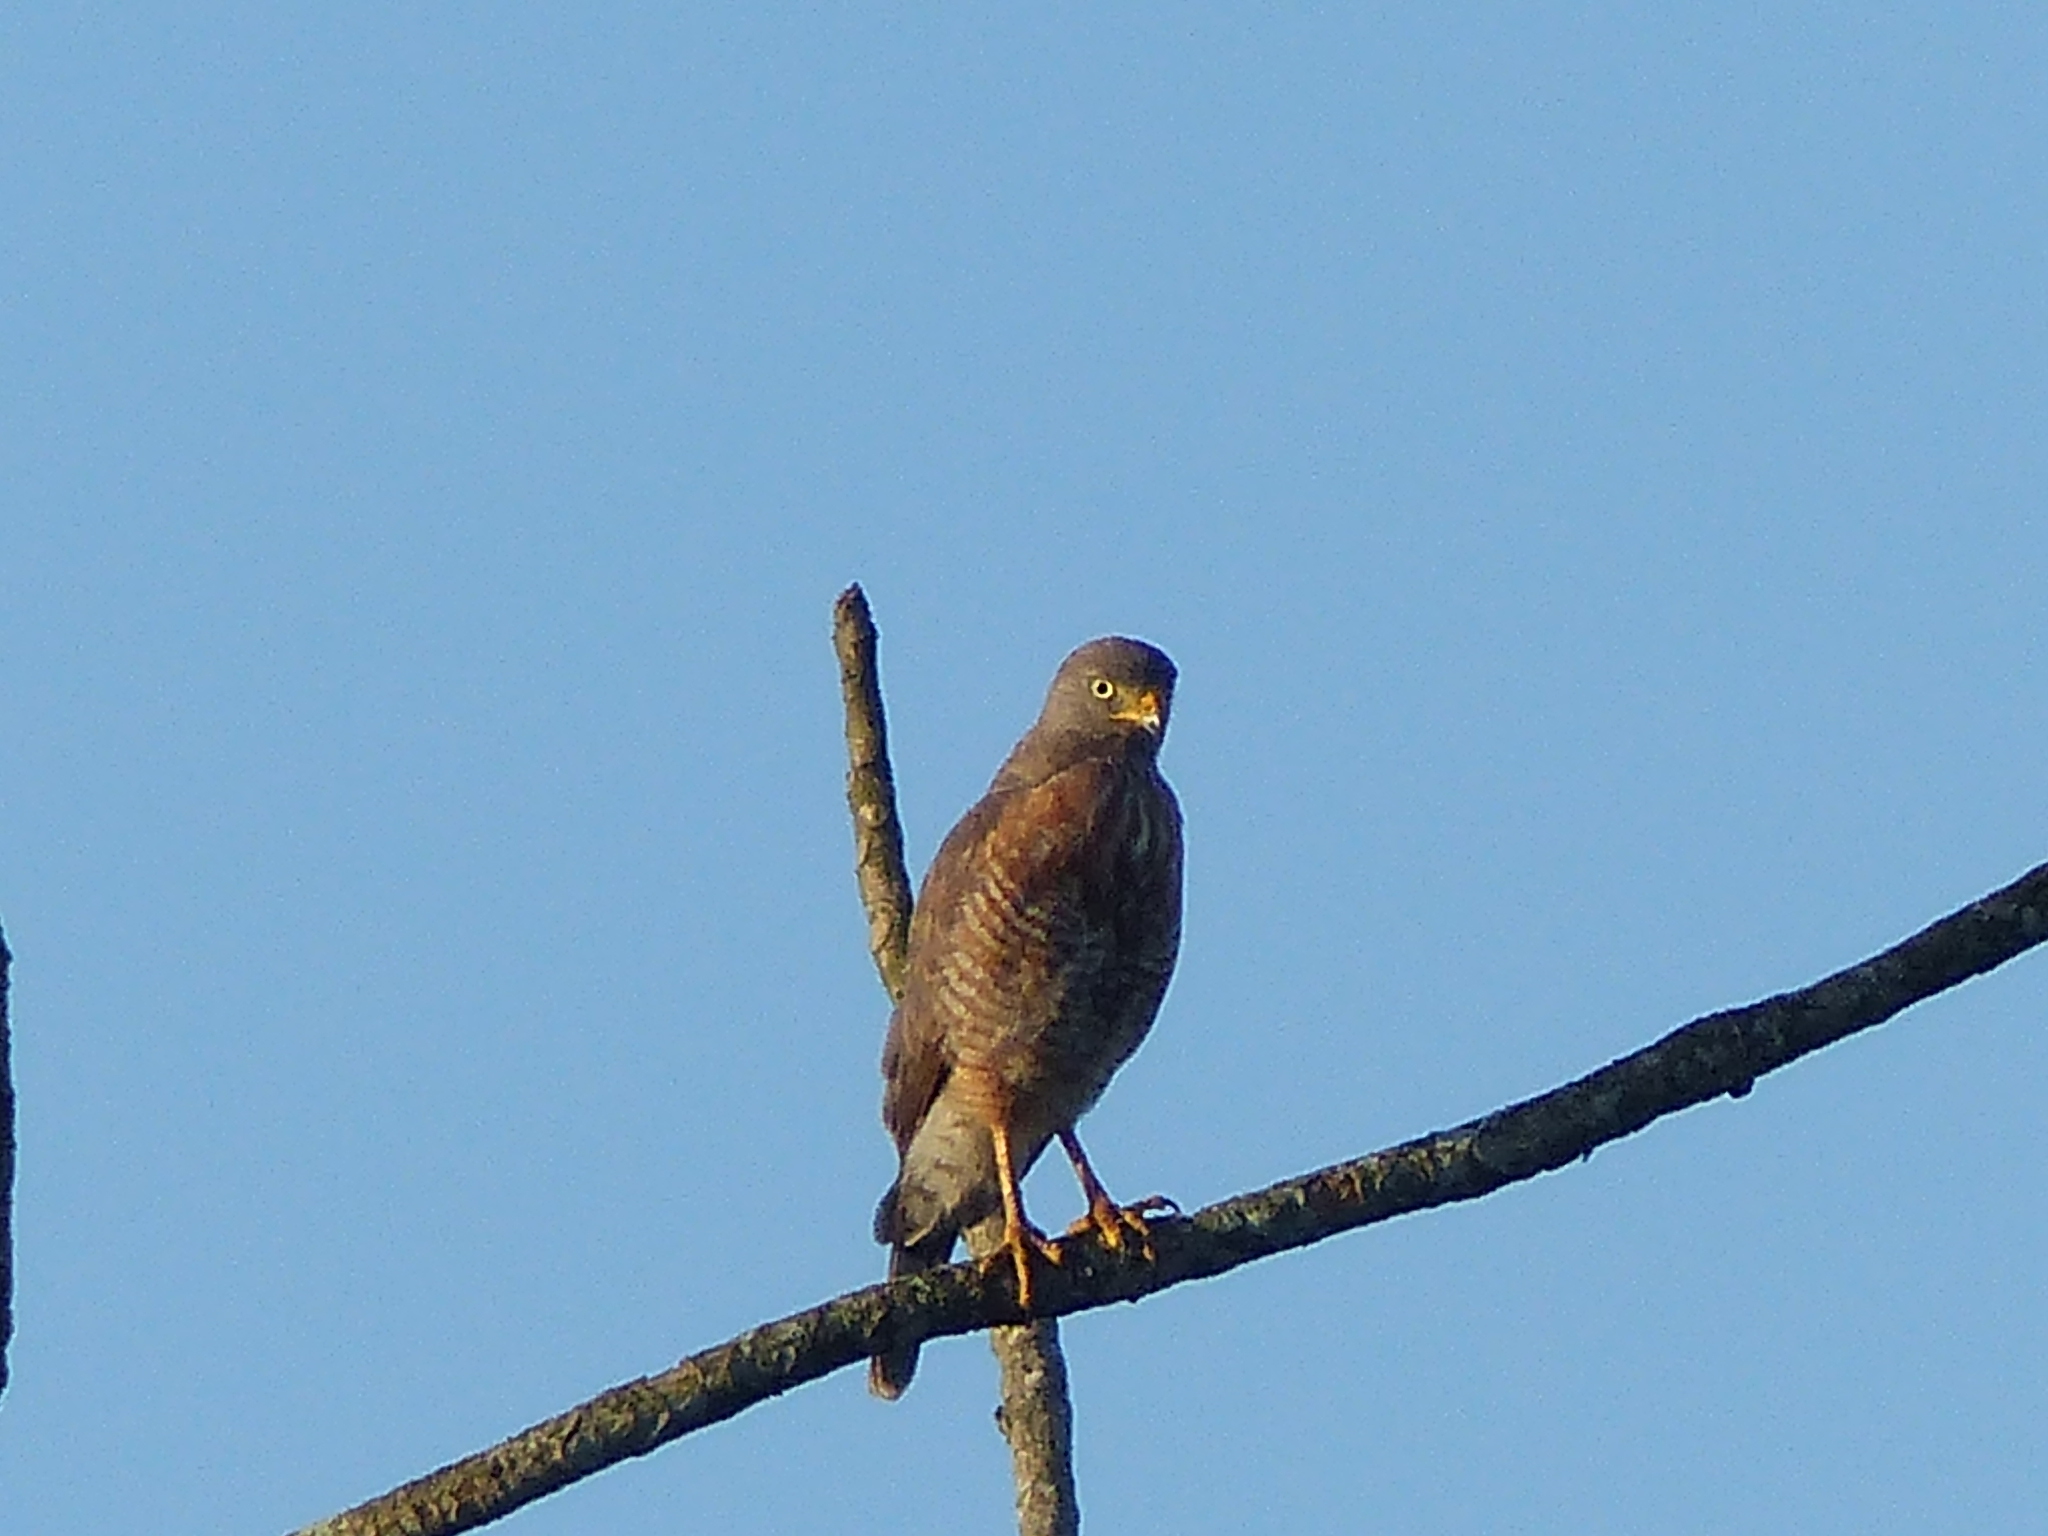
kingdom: Animalia
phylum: Chordata
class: Aves
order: Accipitriformes
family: Accipitridae
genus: Rupornis
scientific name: Rupornis magnirostris
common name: Roadside hawk
